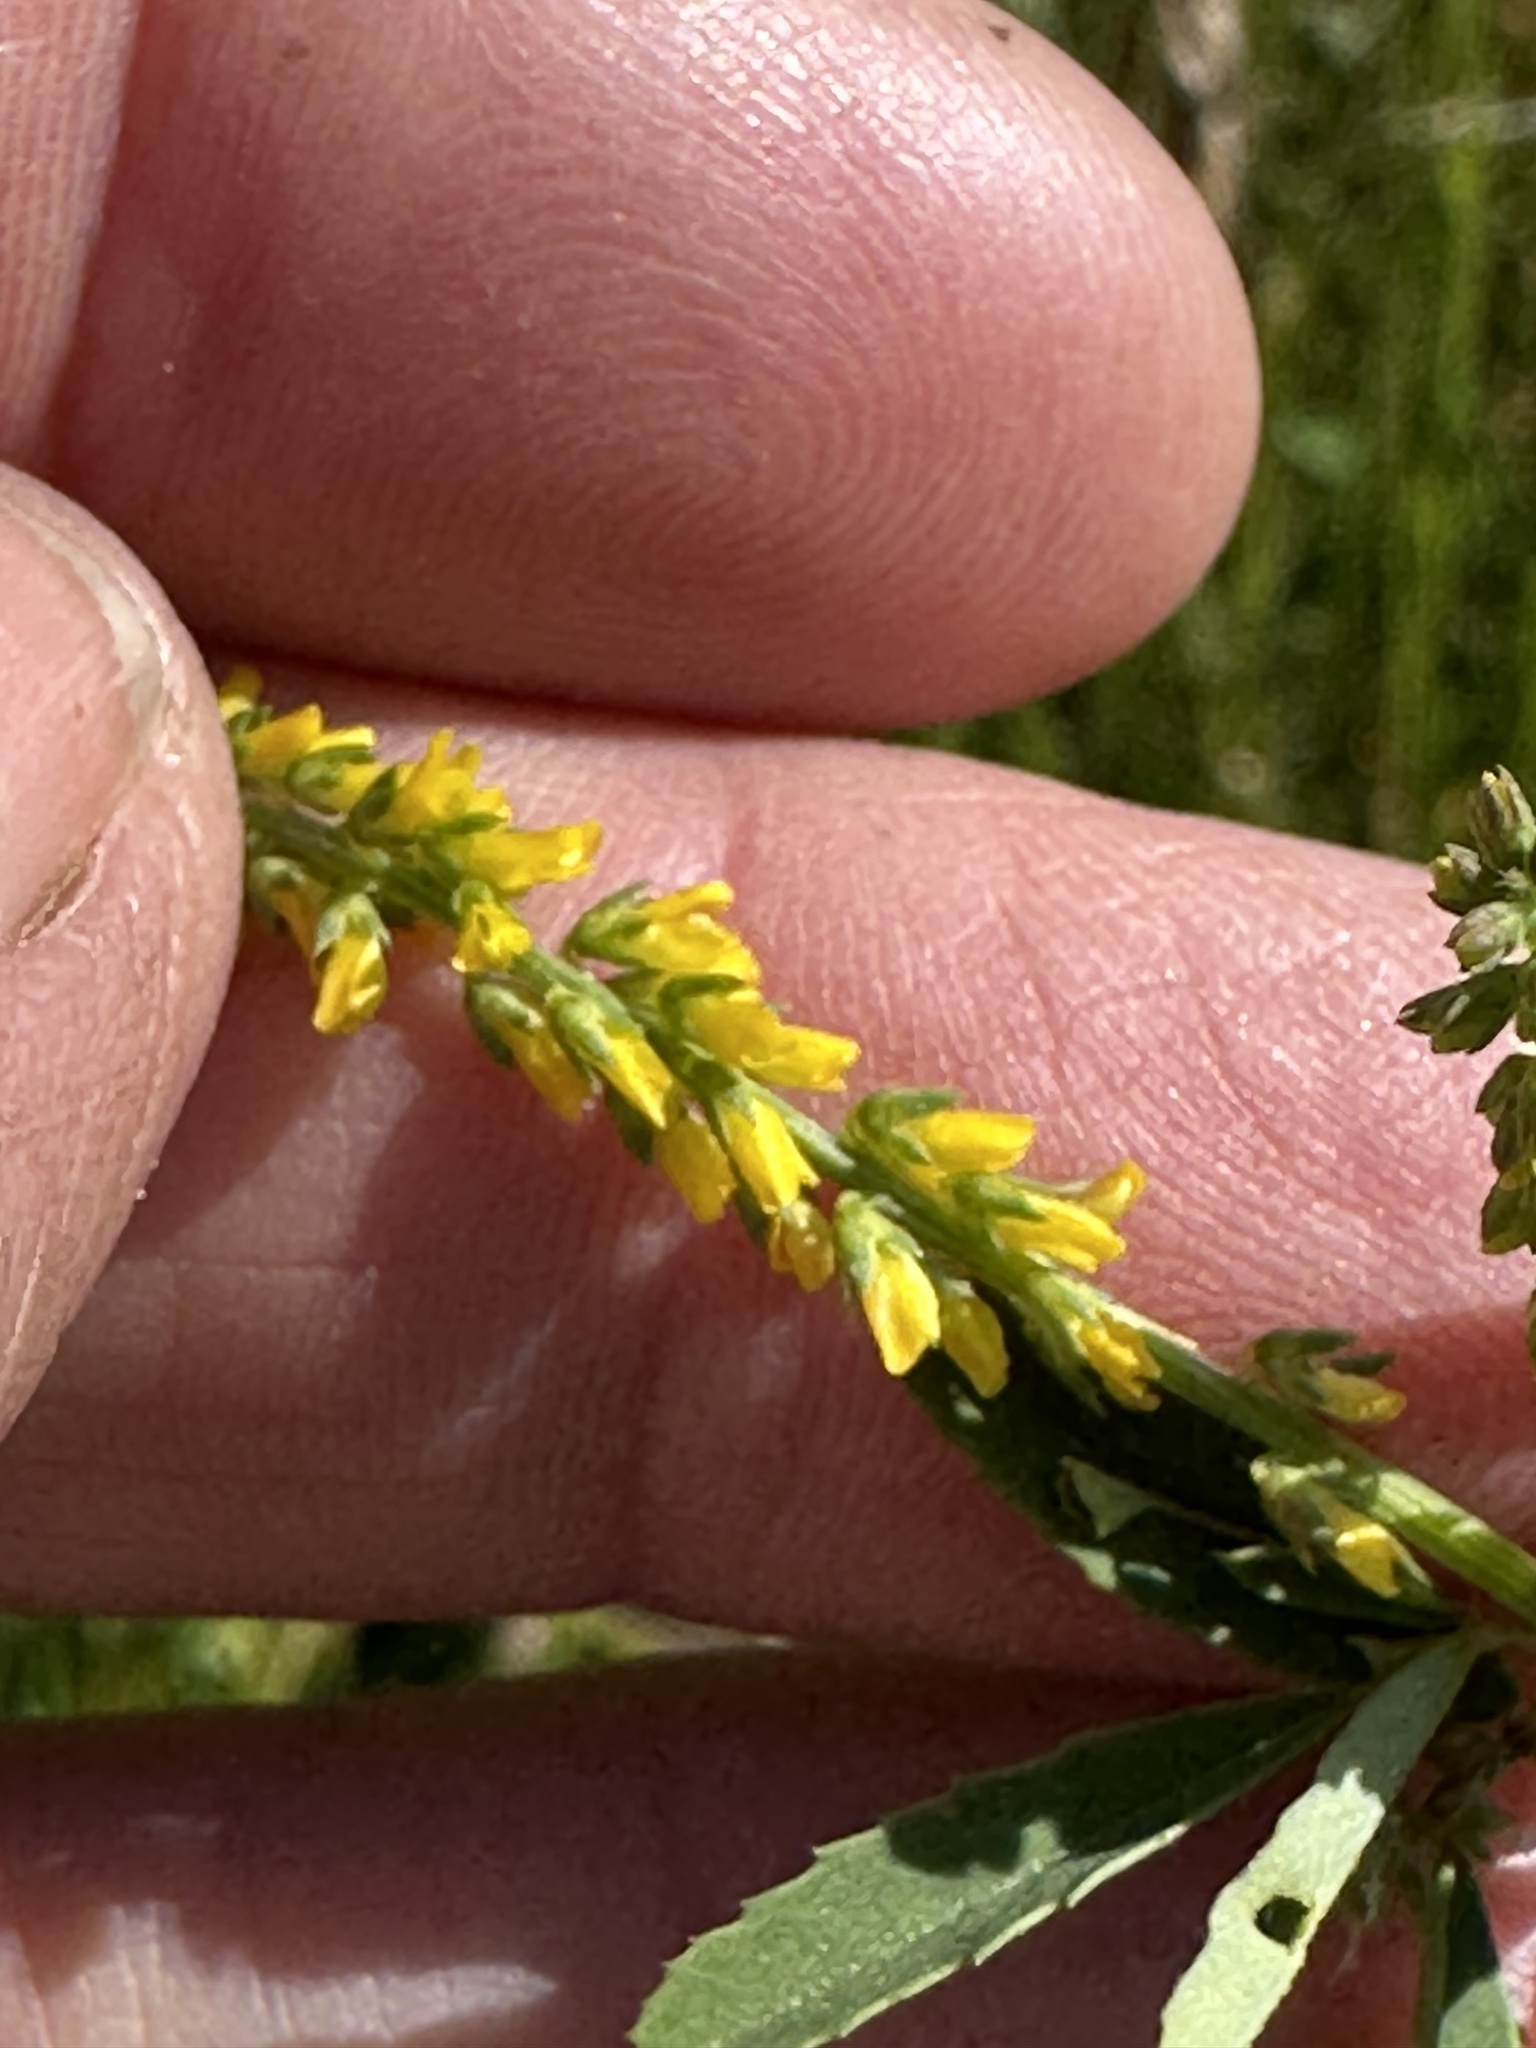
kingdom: Plantae
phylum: Tracheophyta
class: Magnoliopsida
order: Fabales
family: Fabaceae
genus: Melilotus
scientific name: Melilotus indicus
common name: Small melilot
